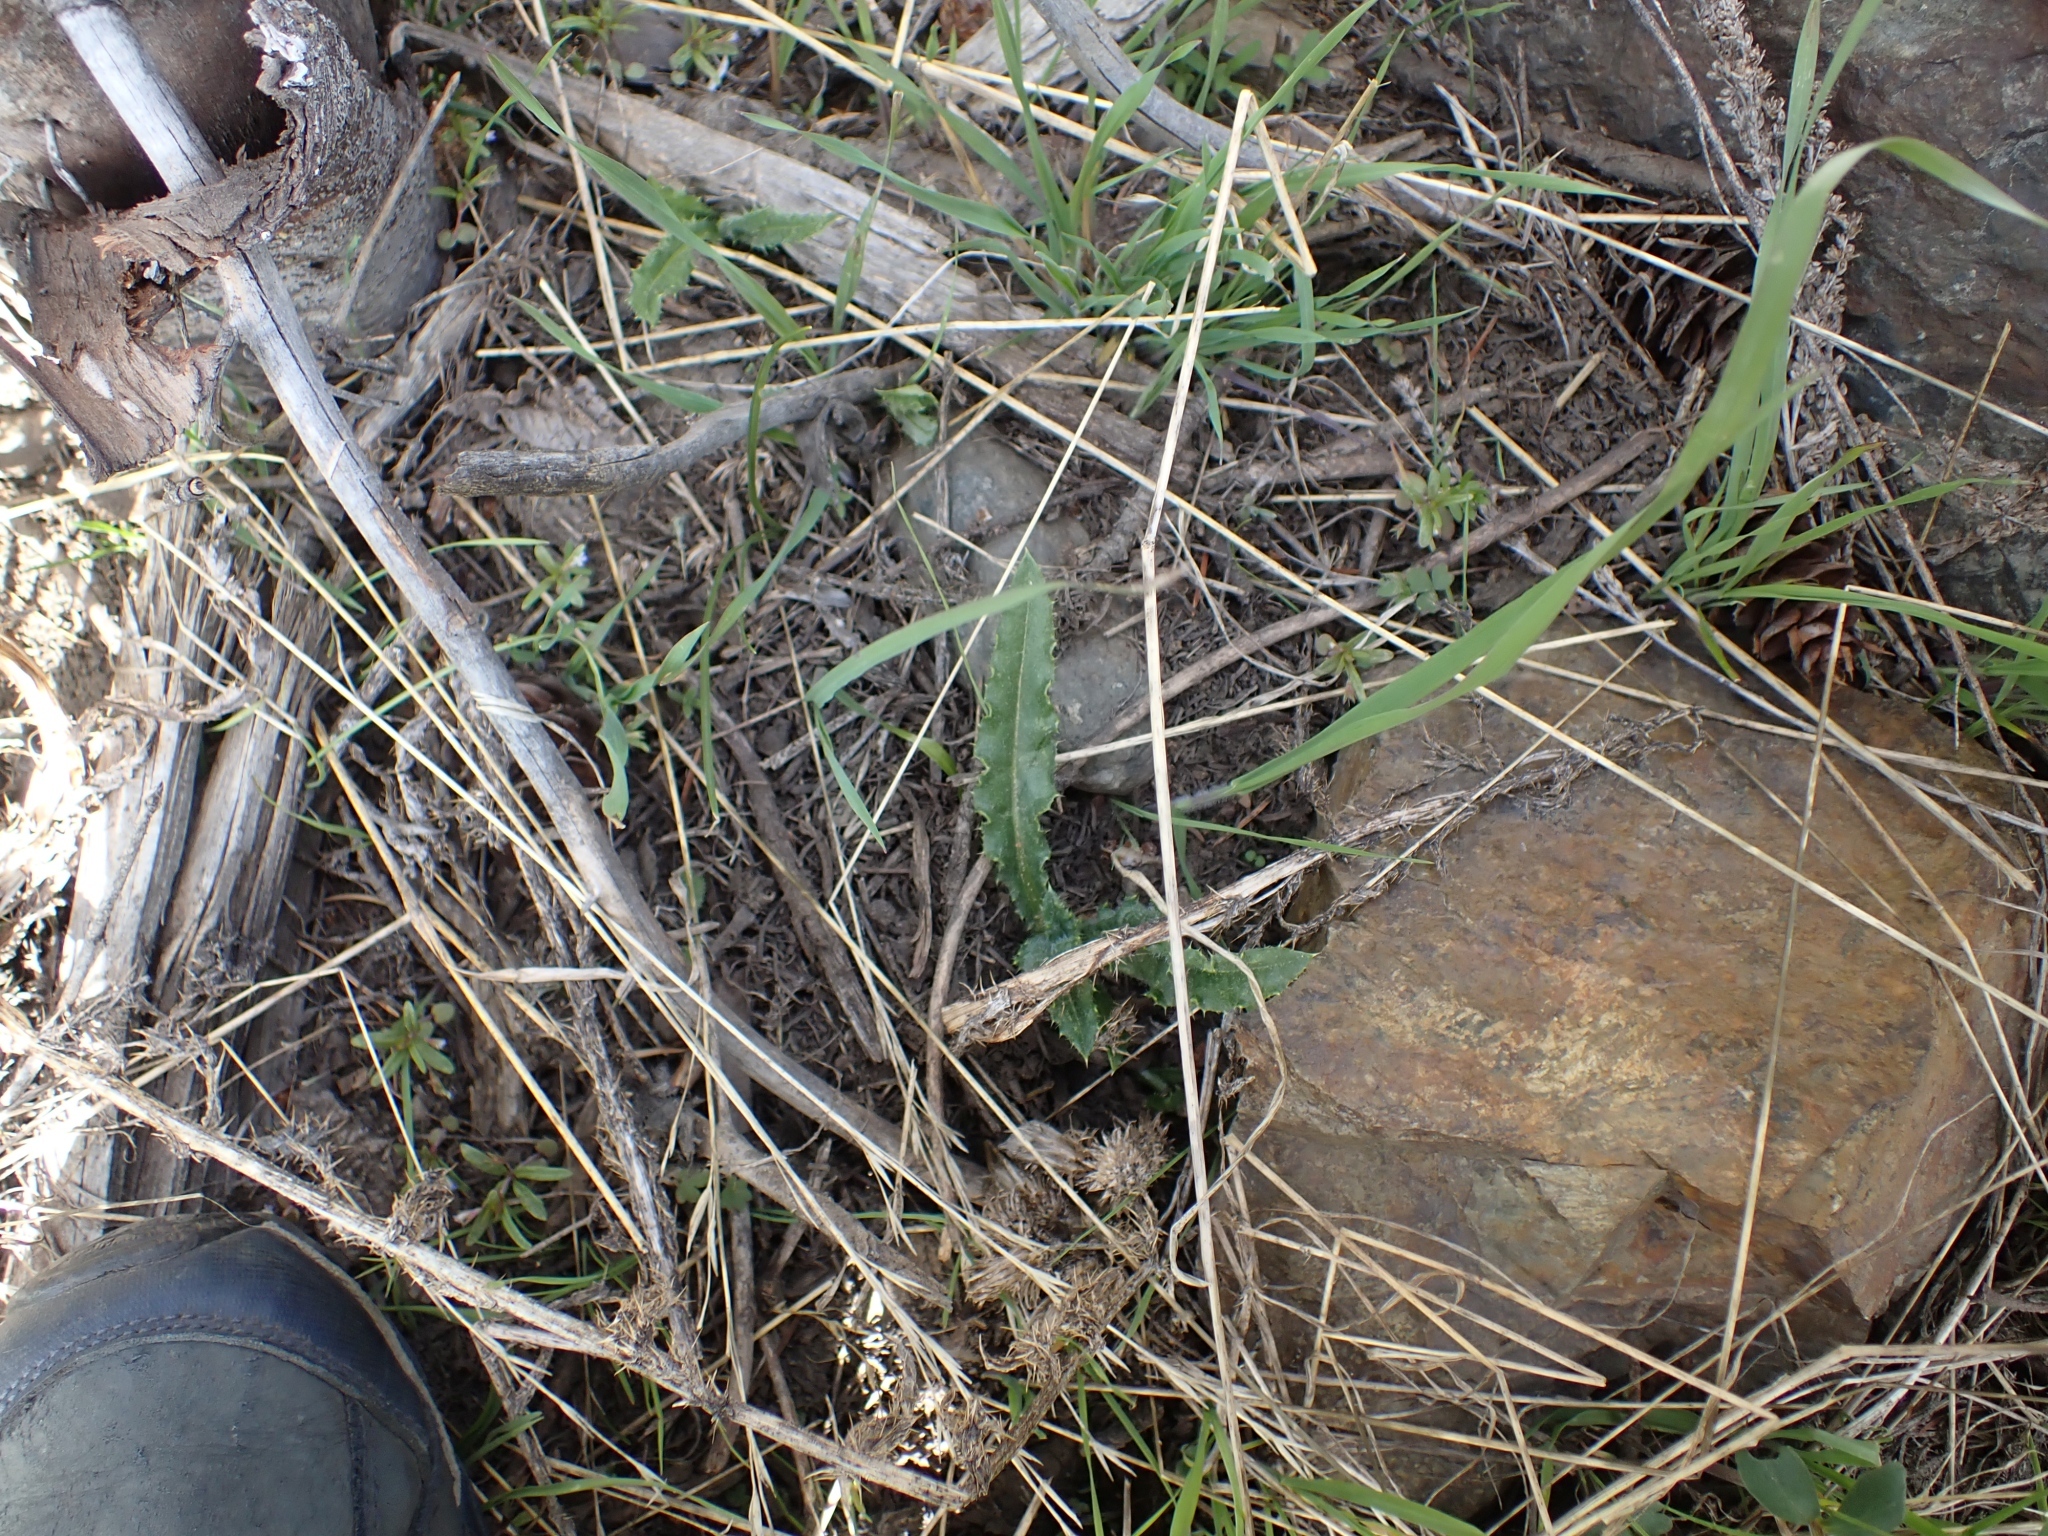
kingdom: Plantae
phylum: Tracheophyta
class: Magnoliopsida
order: Asterales
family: Asteraceae
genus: Cirsium
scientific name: Cirsium arvense
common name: Creeping thistle
